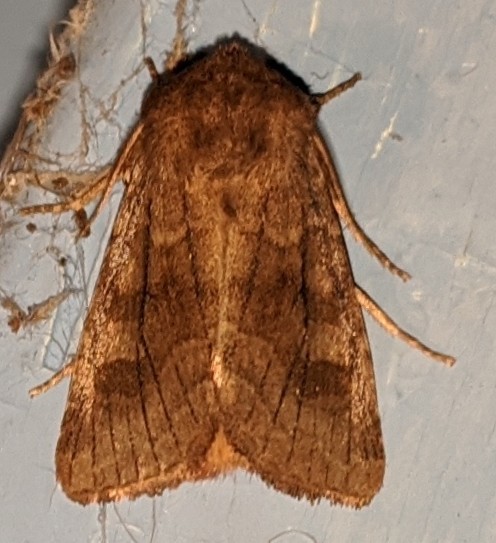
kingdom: Animalia
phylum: Arthropoda
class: Insecta
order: Lepidoptera
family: Noctuidae
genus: Nephelodes
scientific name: Nephelodes minians
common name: Bronzed cutworm
